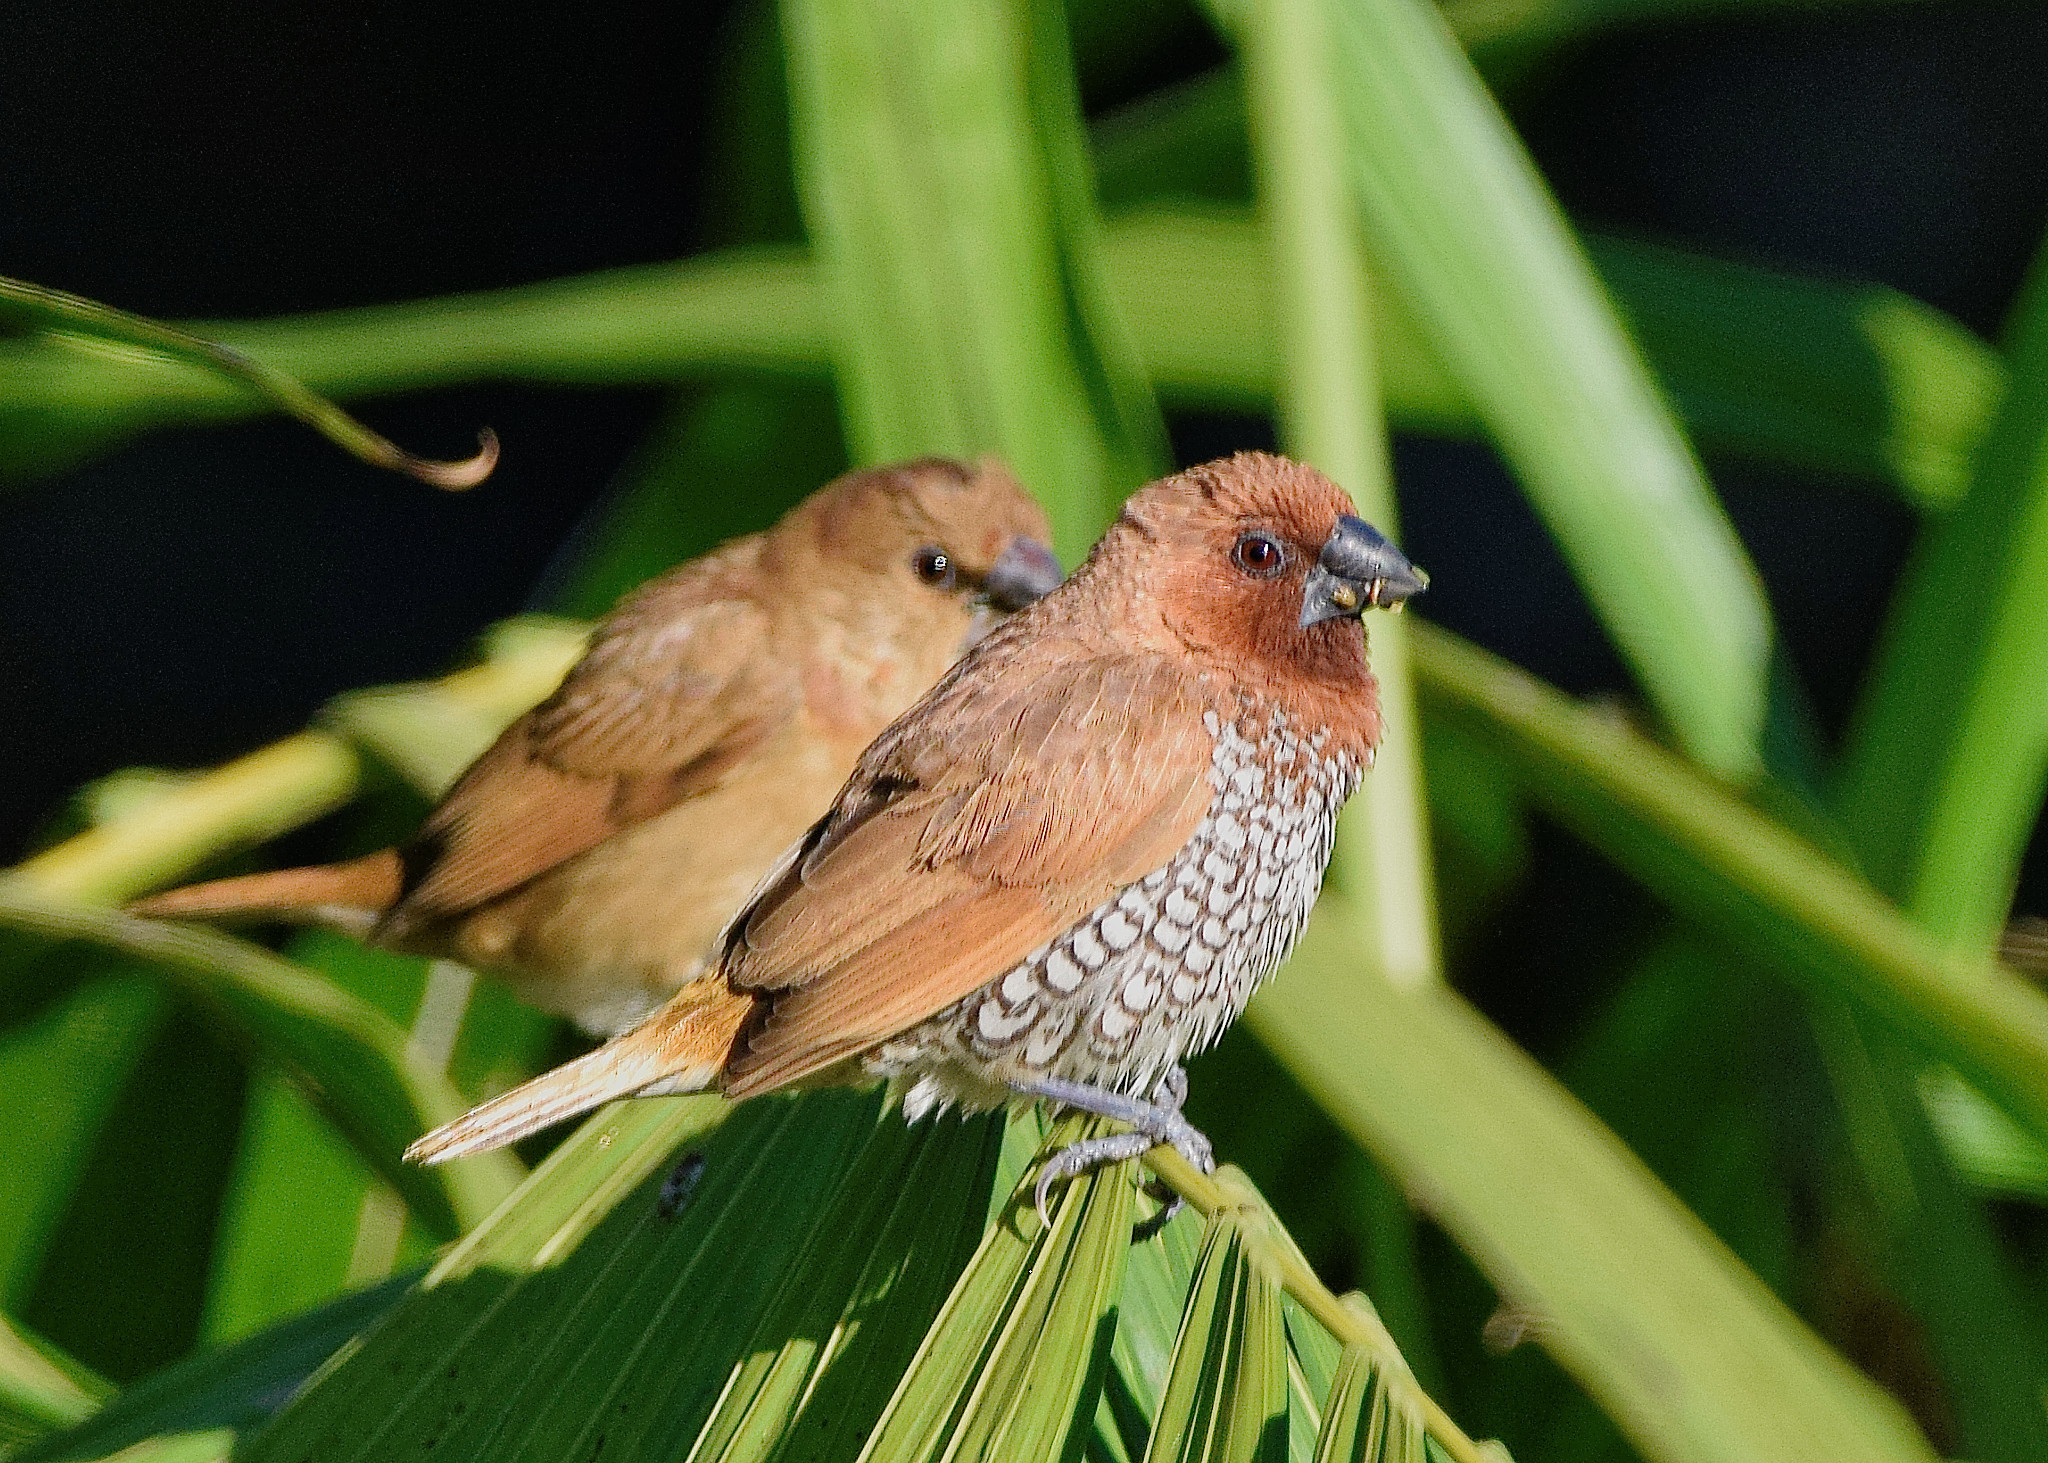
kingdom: Animalia
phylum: Chordata
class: Aves
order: Passeriformes
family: Estrildidae
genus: Lonchura
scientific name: Lonchura punctulata
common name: Scaly-breasted munia
